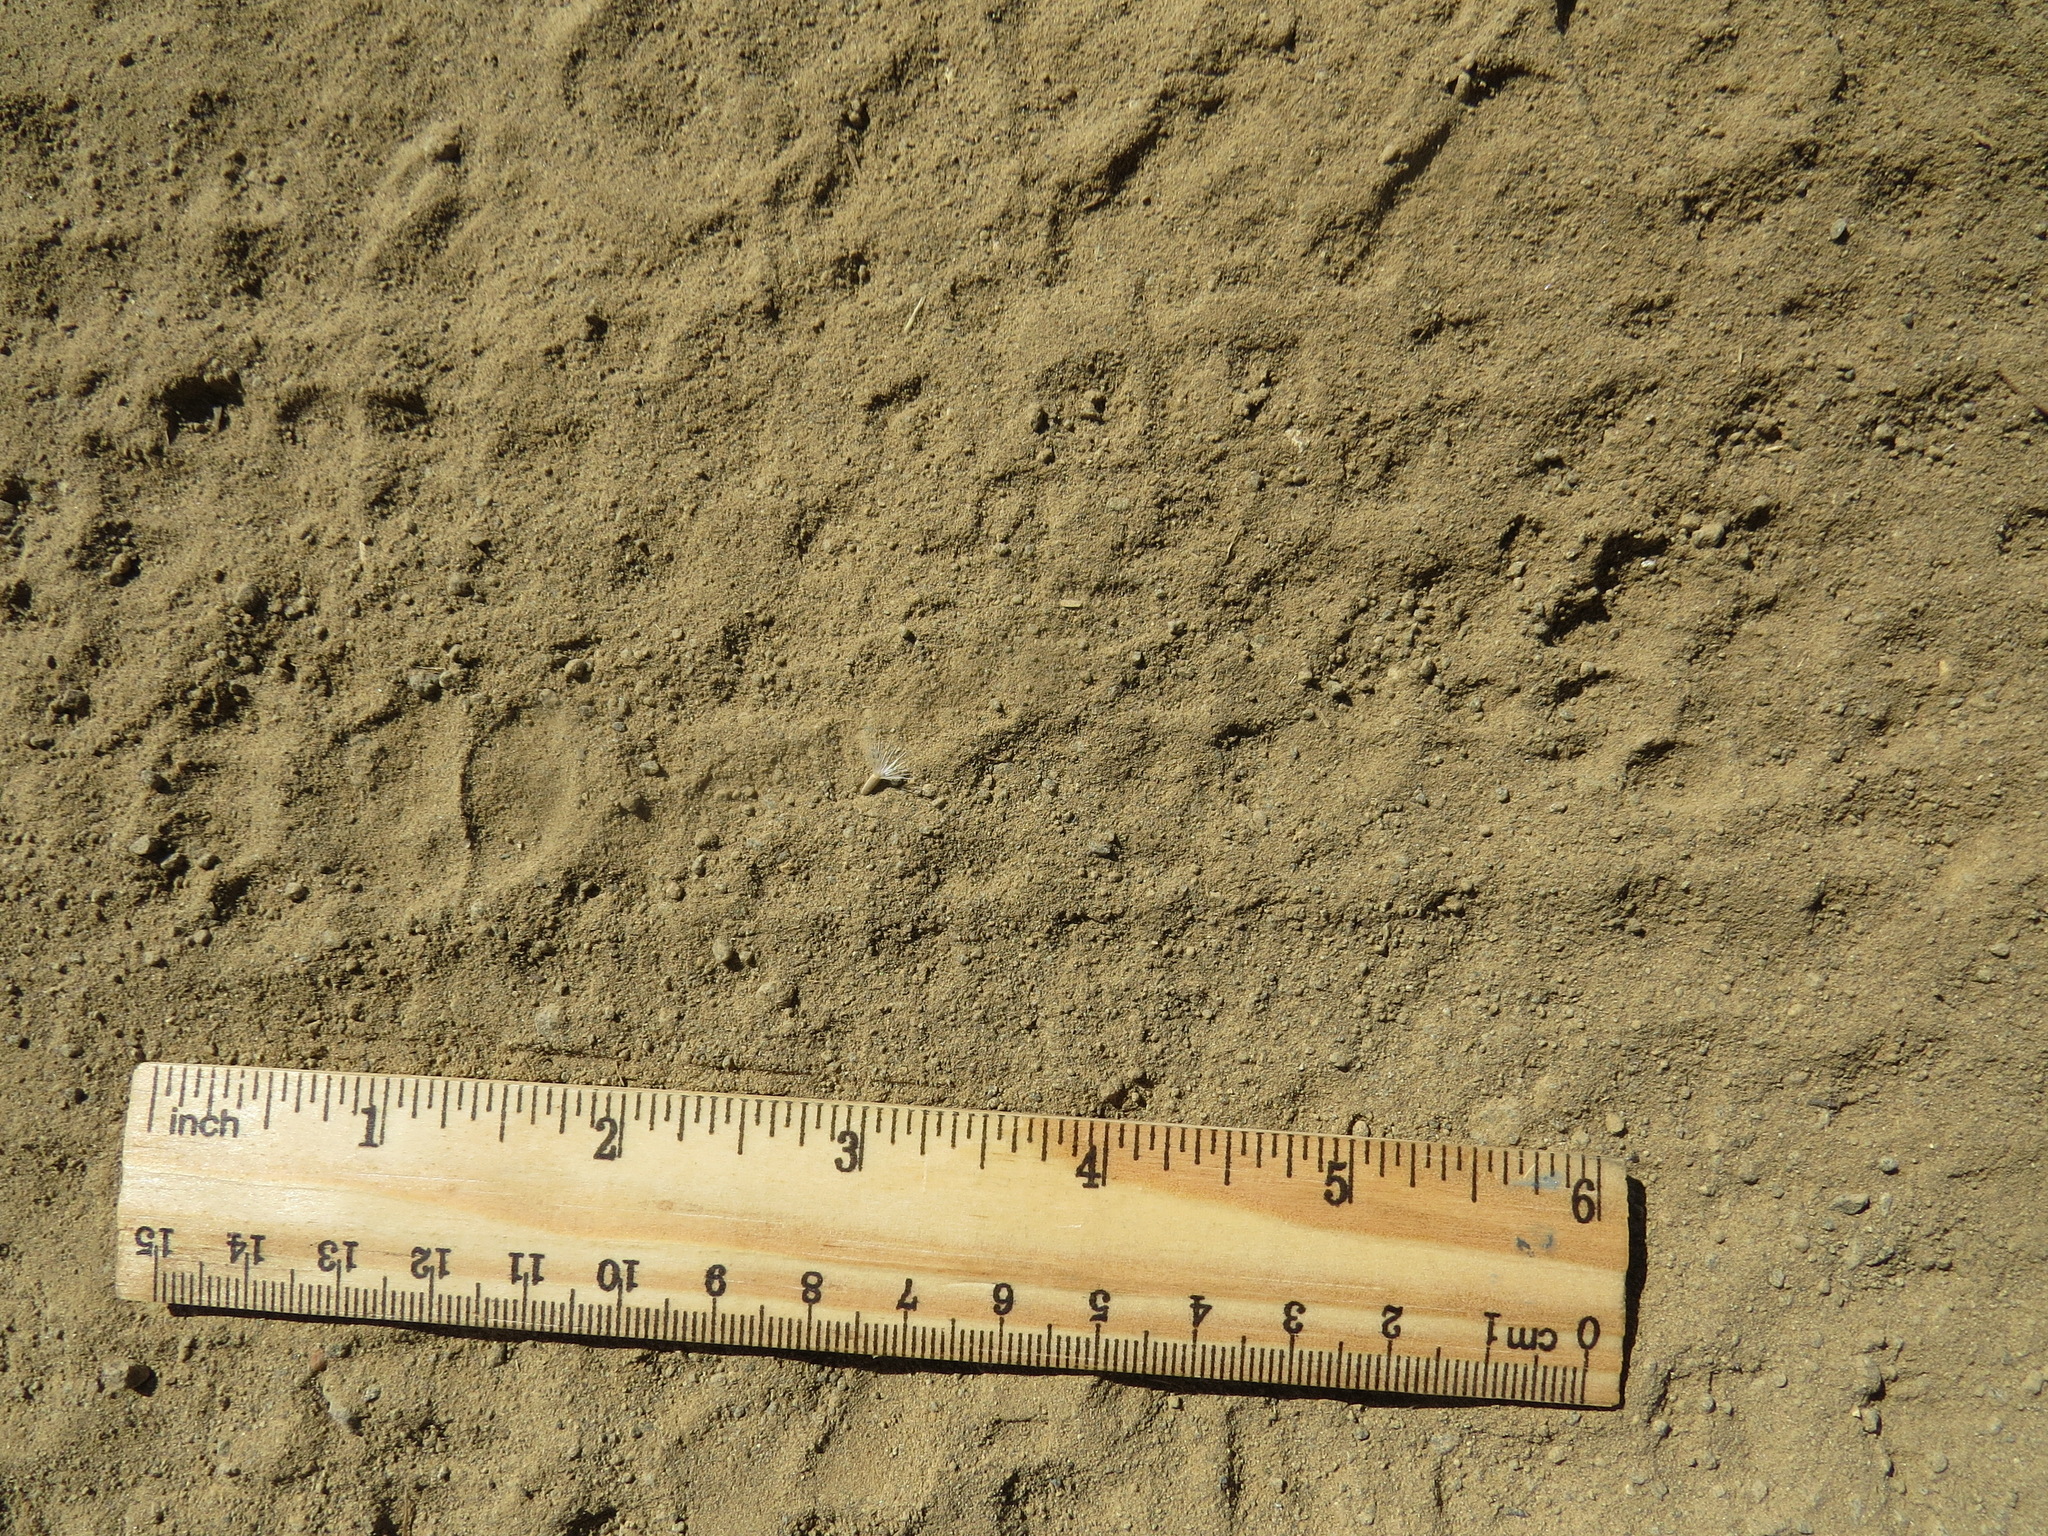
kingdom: Animalia
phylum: Chordata
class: Mammalia
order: Carnivora
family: Mephitidae
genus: Mephitis
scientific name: Mephitis mephitis
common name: Striped skunk
